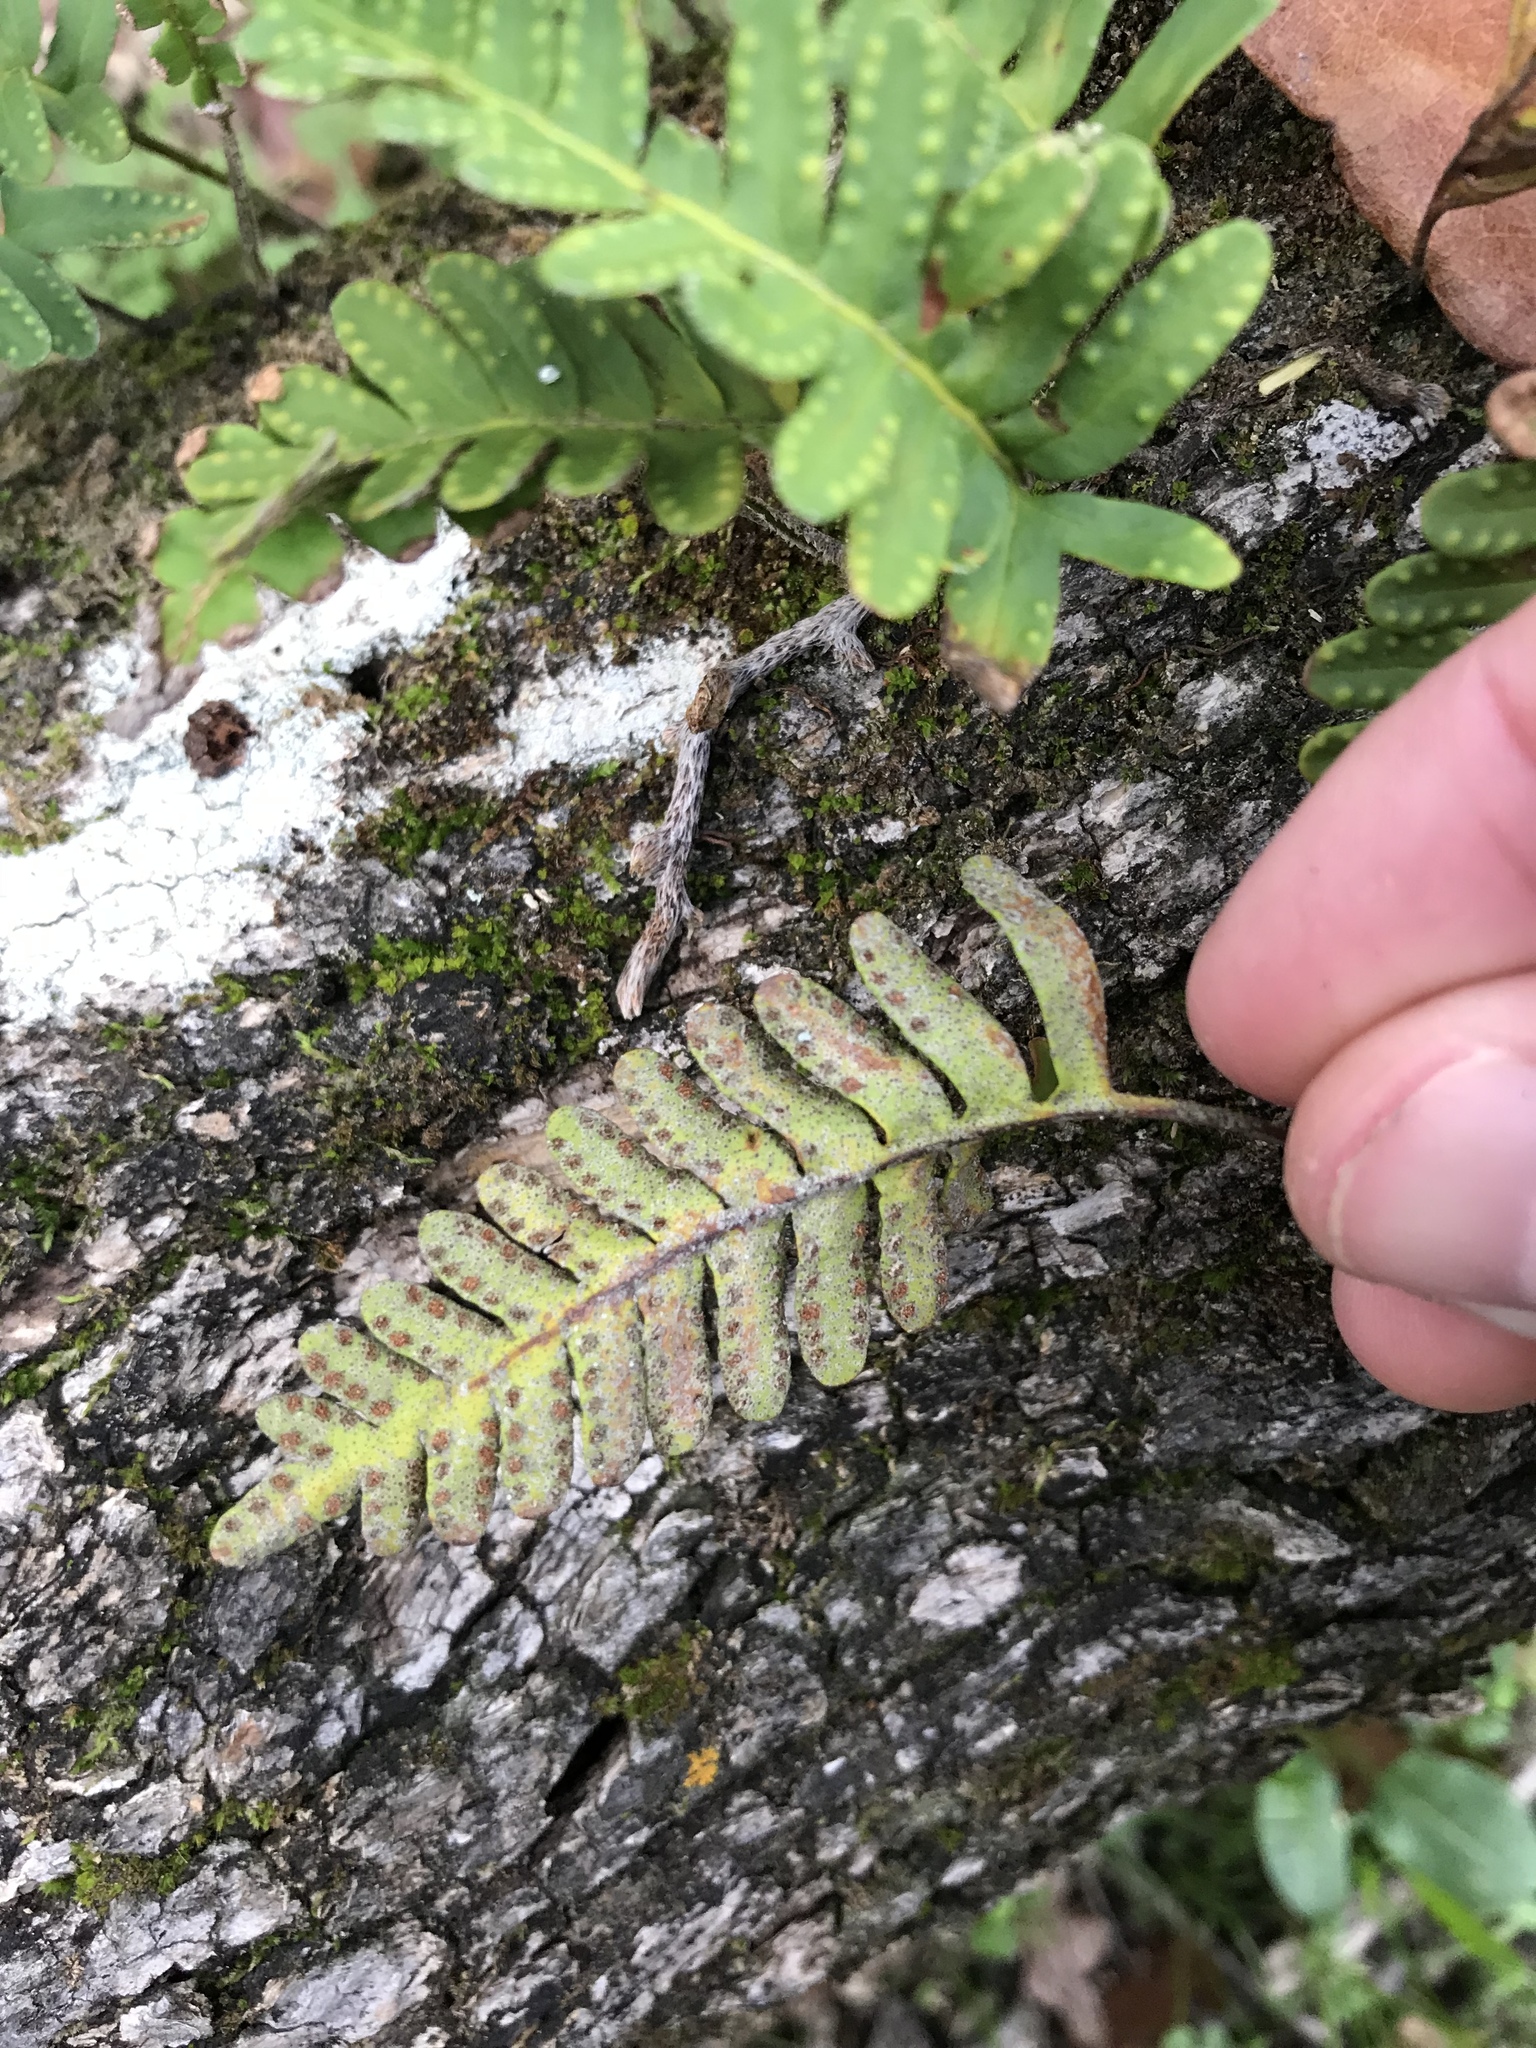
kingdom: Plantae
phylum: Tracheophyta
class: Polypodiopsida
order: Polypodiales
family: Polypodiaceae
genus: Pleopeltis
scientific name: Pleopeltis michauxiana
